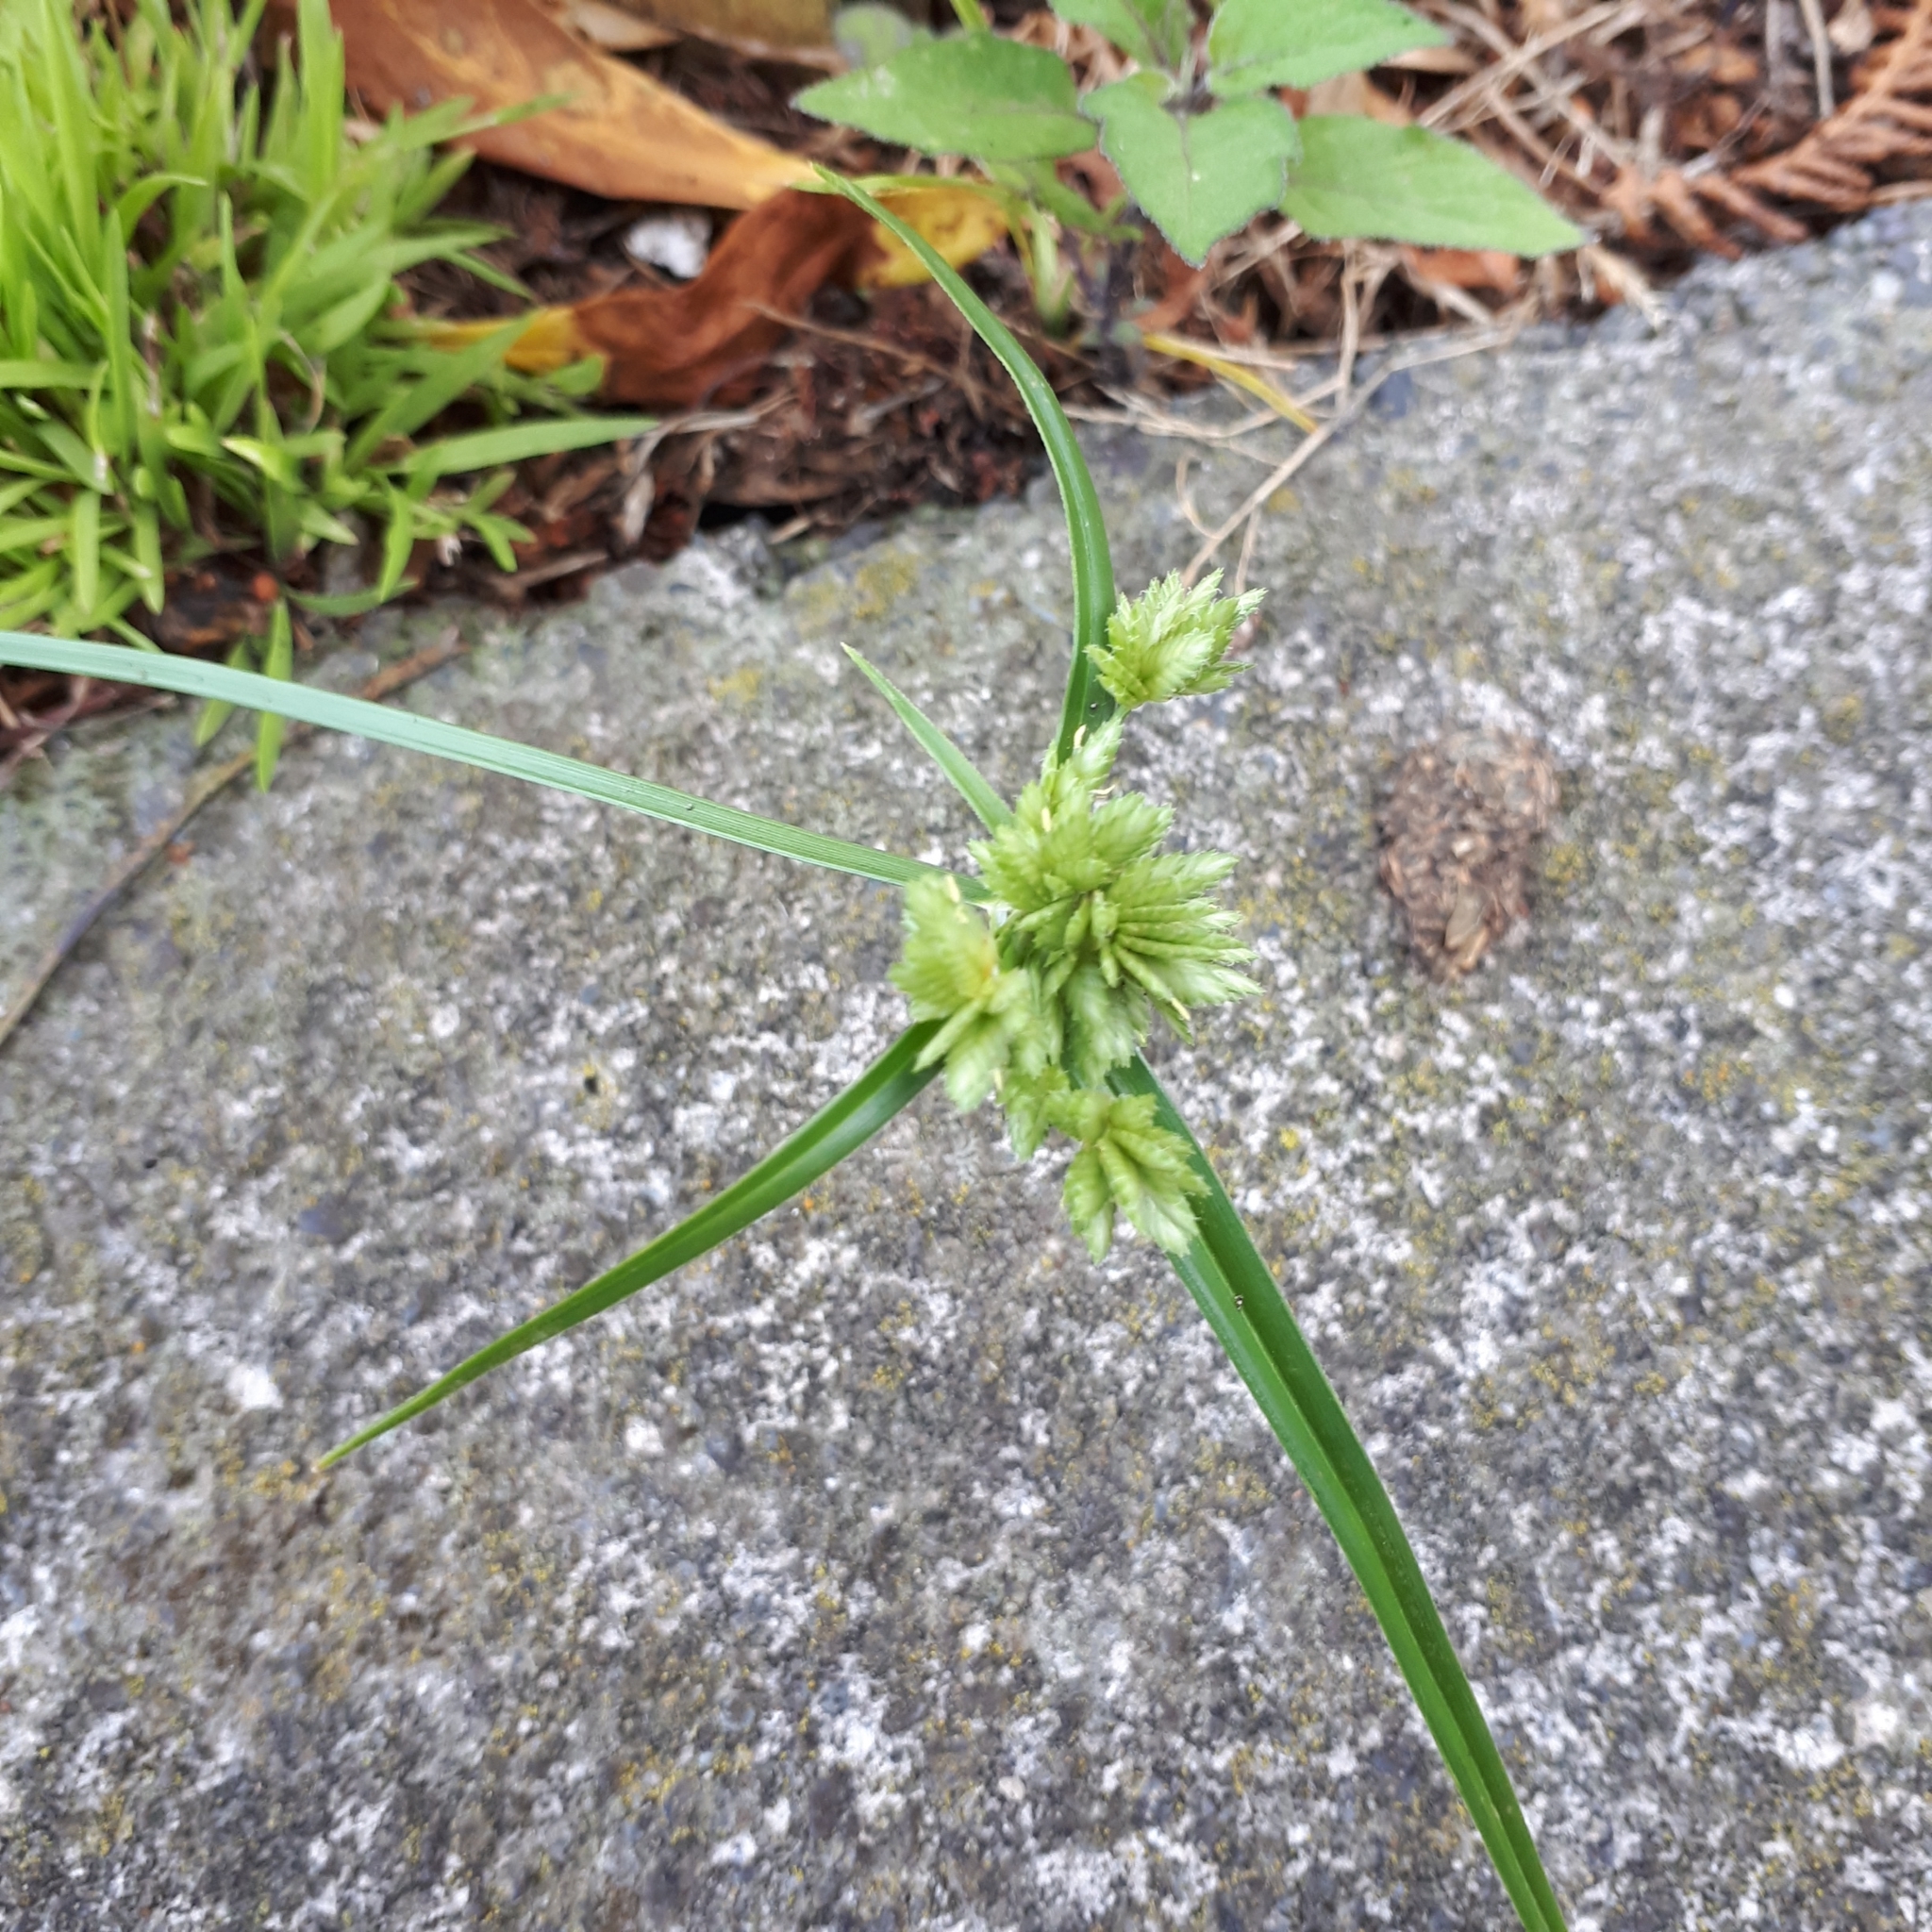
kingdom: Plantae
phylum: Tracheophyta
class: Liliopsida
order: Poales
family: Cyperaceae
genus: Cyperus
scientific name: Cyperus eragrostis
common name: Tall flatsedge
